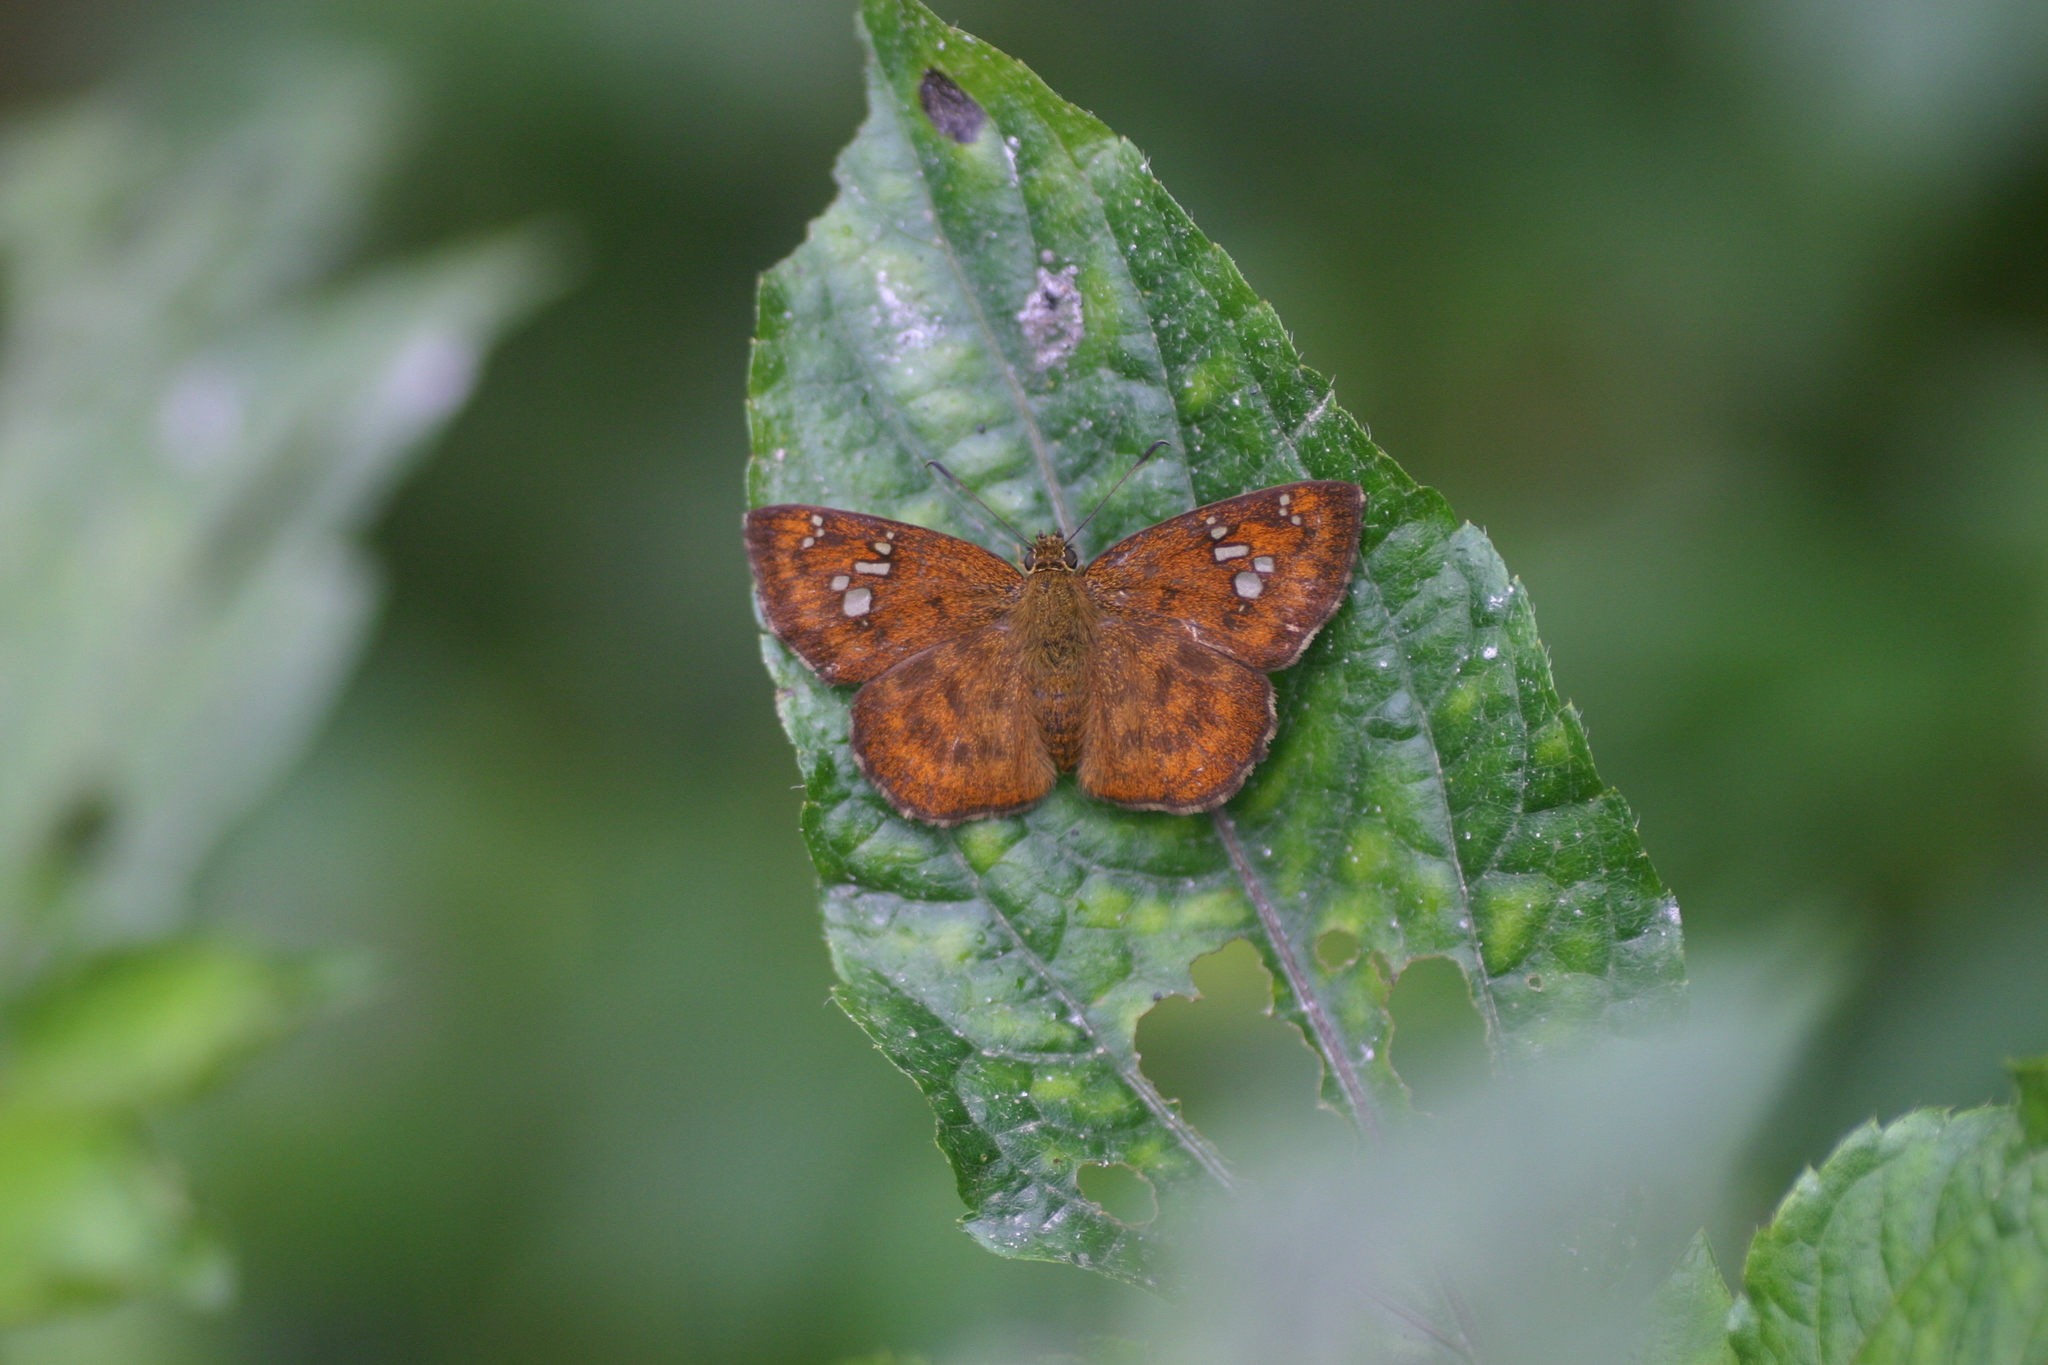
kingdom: Animalia
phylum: Arthropoda
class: Insecta
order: Lepidoptera
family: Hesperiidae
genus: Pseudocoladenia
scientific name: Pseudocoladenia dan
